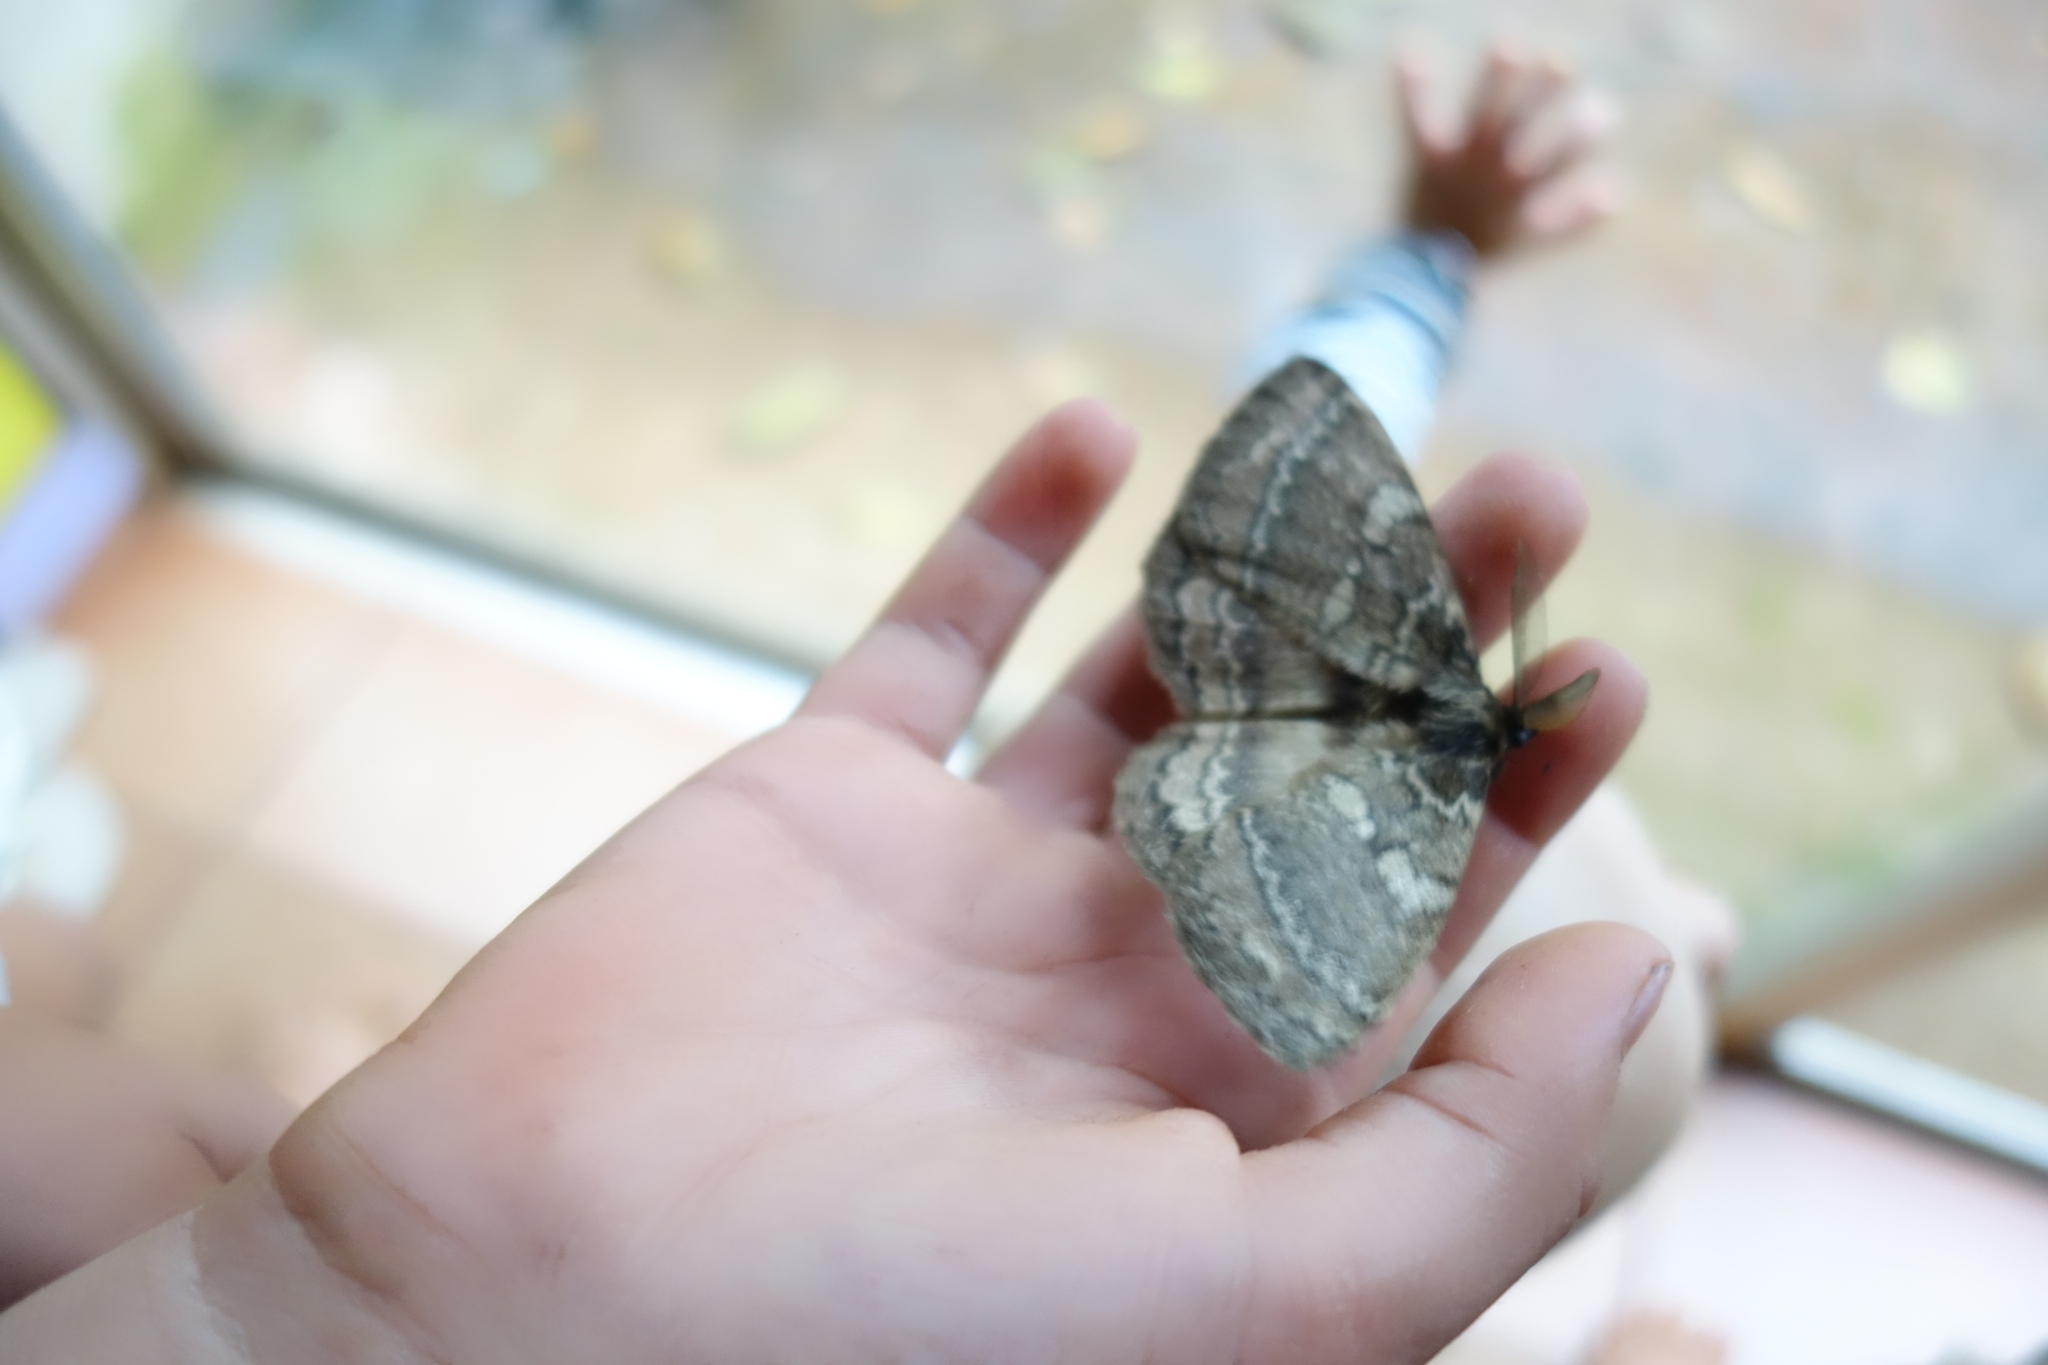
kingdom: Animalia
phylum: Arthropoda
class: Insecta
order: Lepidoptera
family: Eupterotidae
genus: Striphnopteryx
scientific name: Striphnopteryx edulis
